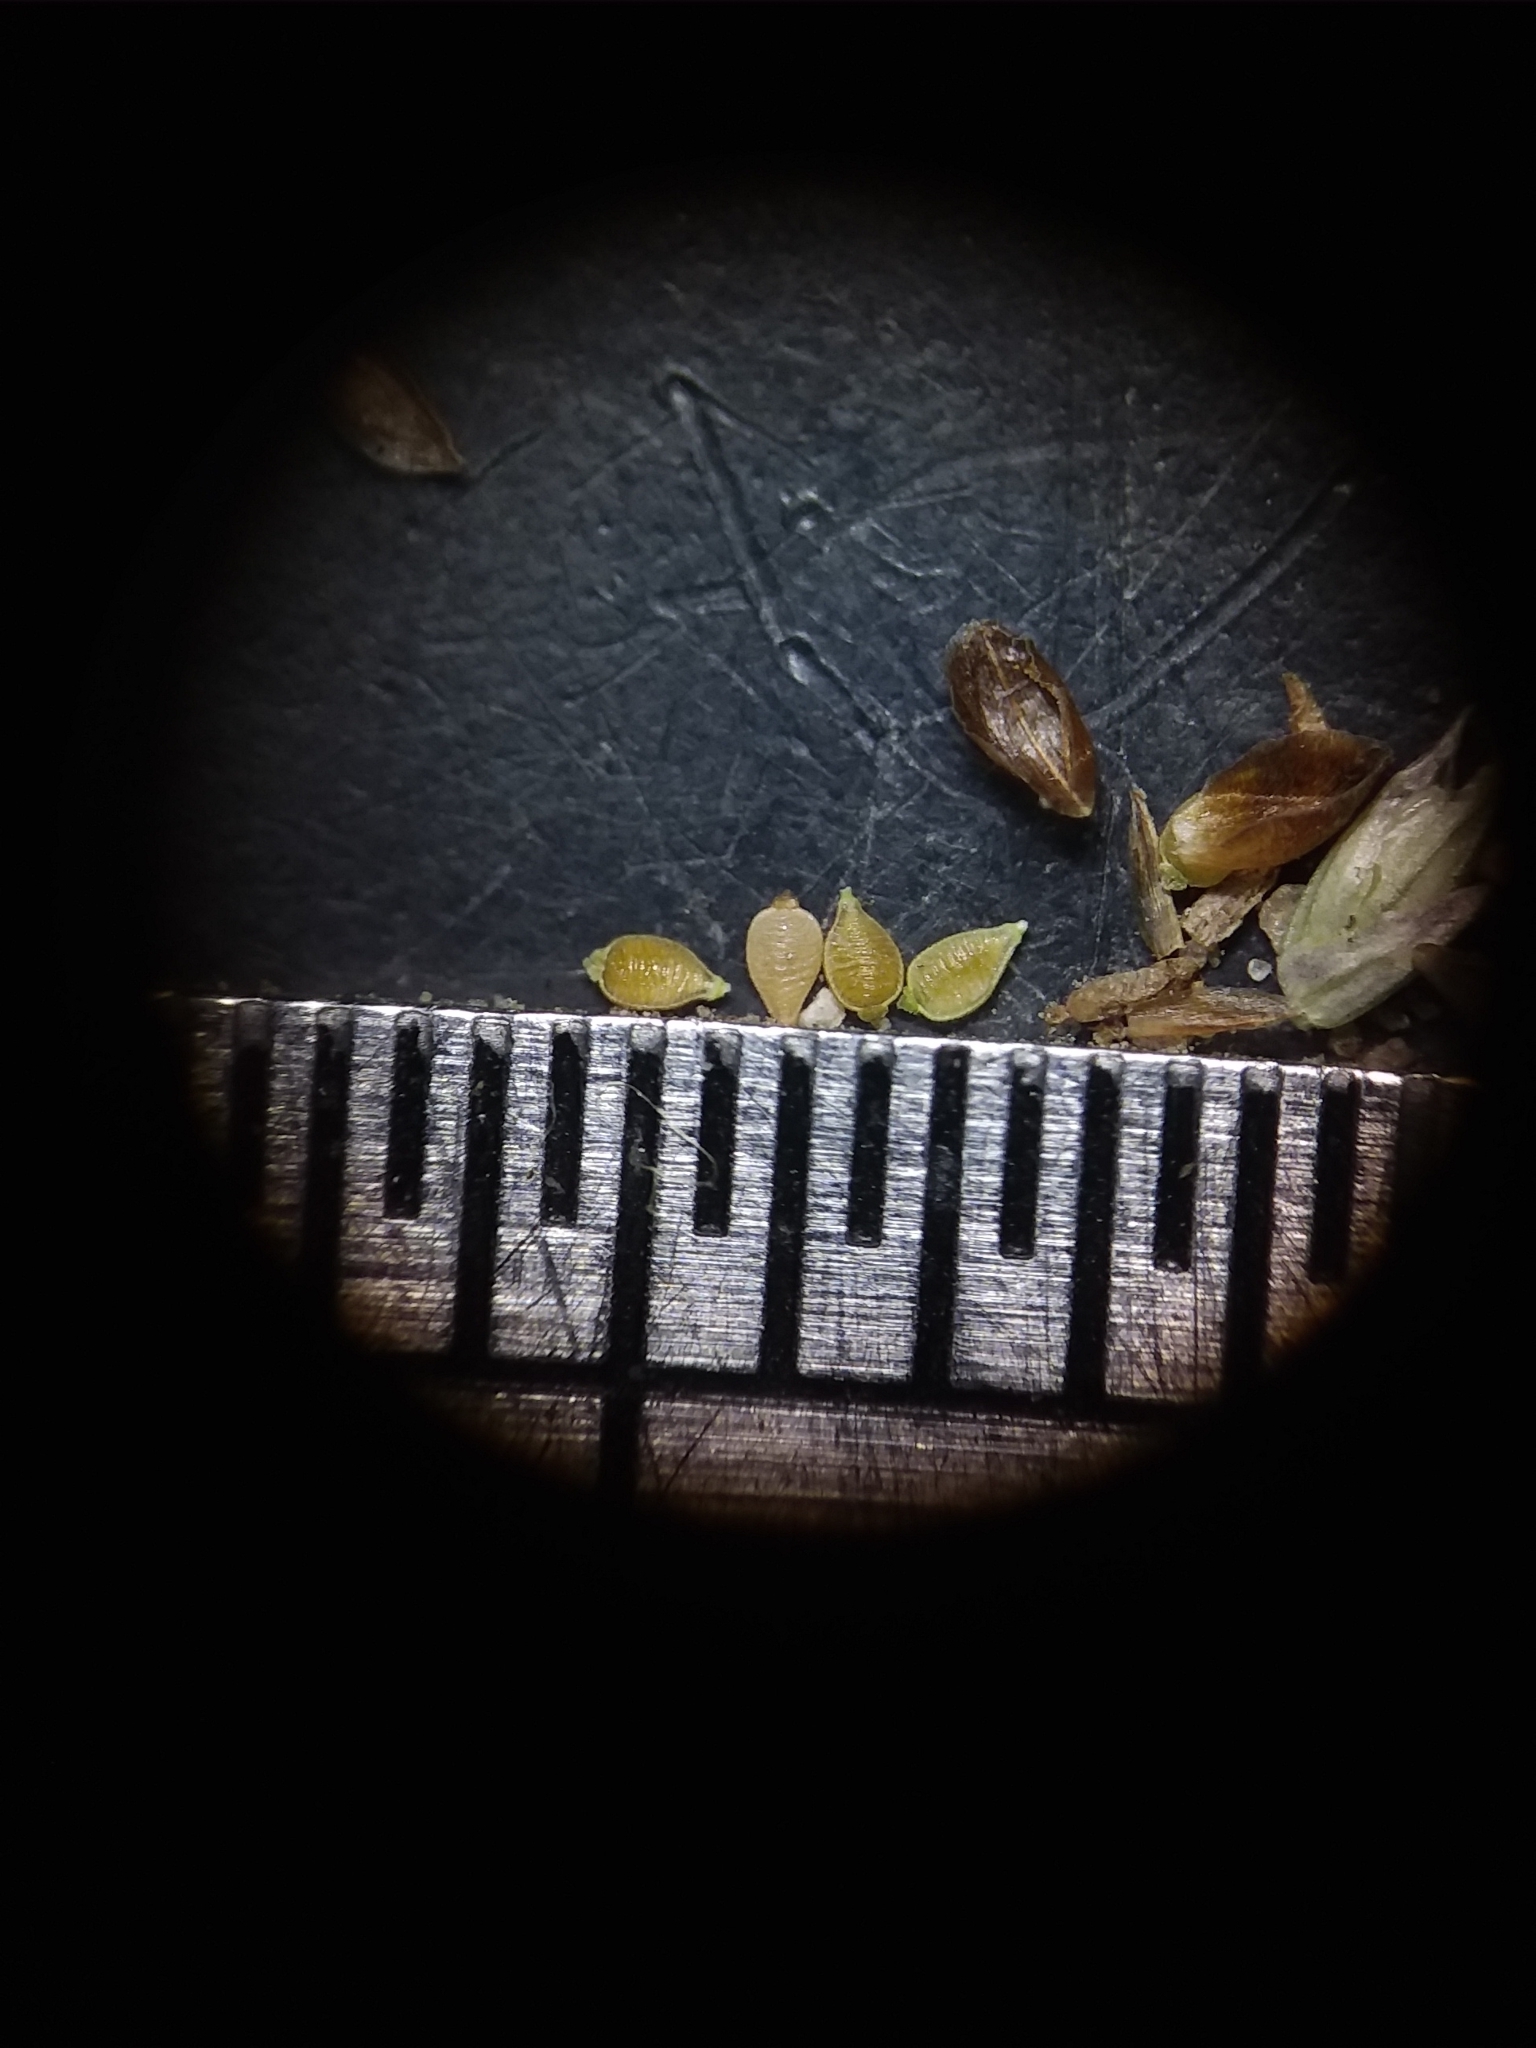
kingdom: Plantae
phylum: Tracheophyta
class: Liliopsida
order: Poales
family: Cyperaceae
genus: Rhynchospora
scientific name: Rhynchospora pusilla
